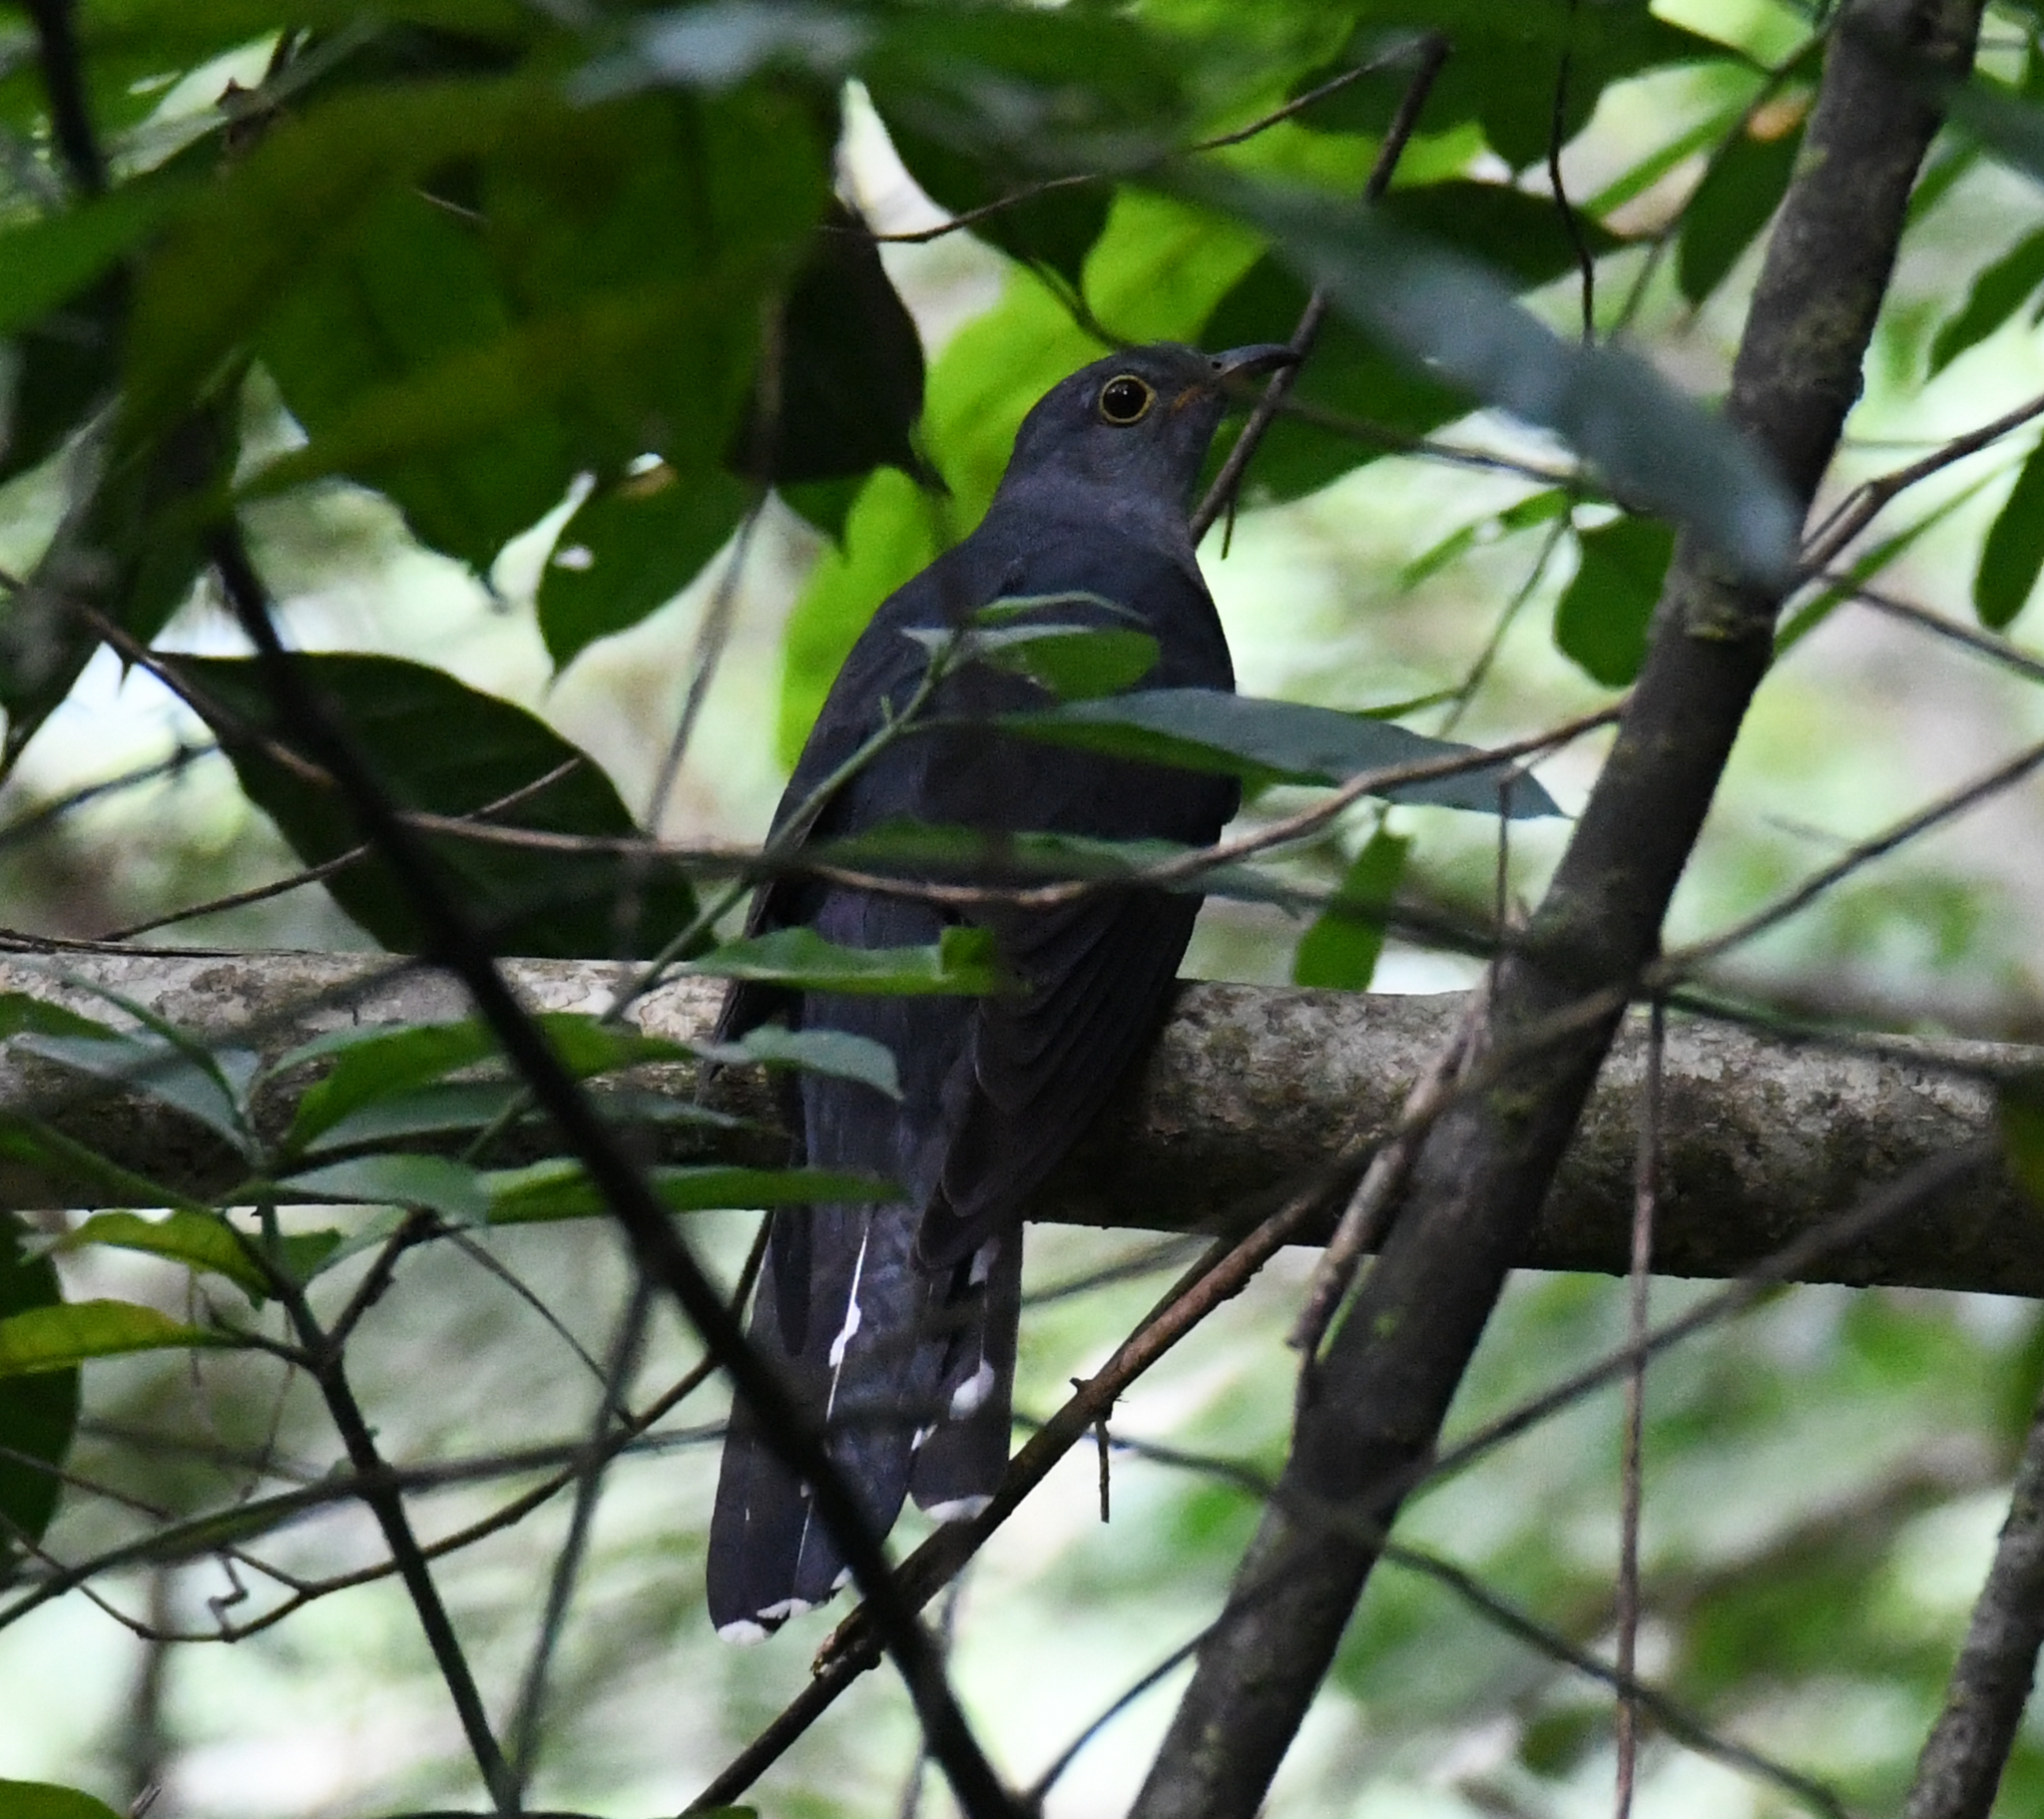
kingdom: Animalia
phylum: Chordata
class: Aves
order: Cuculiformes
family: Cuculidae
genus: Cuculus
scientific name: Cuculus solitarius
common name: Red-chested cuckoo
